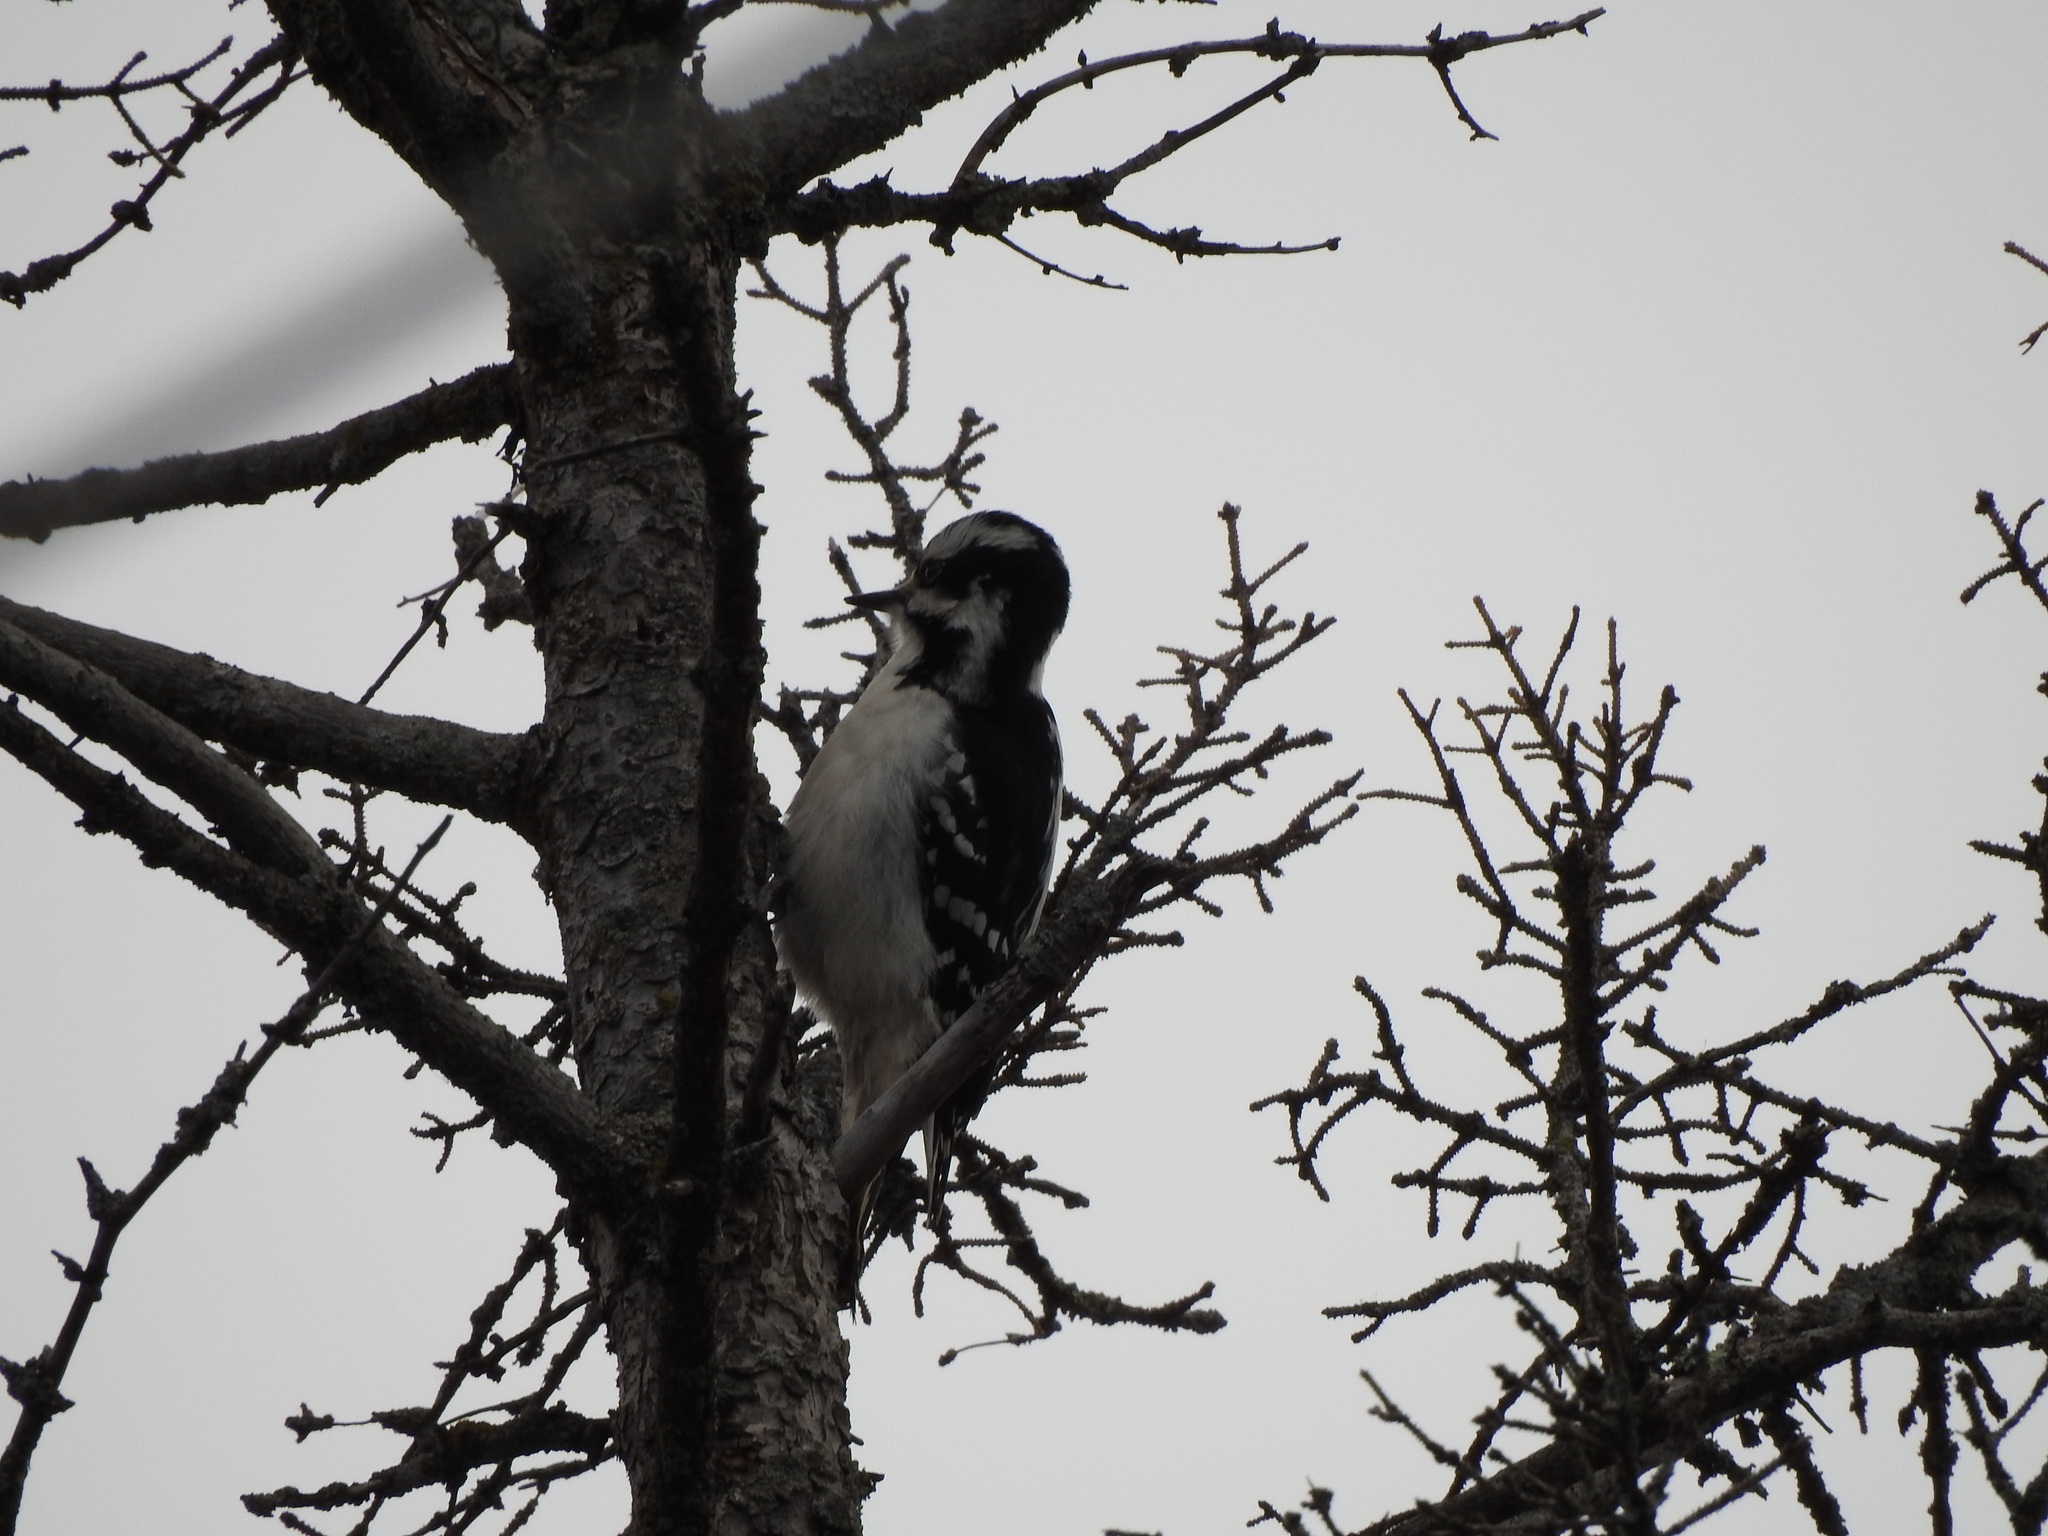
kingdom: Animalia
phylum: Chordata
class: Aves
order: Piciformes
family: Picidae
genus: Leuconotopicus
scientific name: Leuconotopicus villosus
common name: Hairy woodpecker
